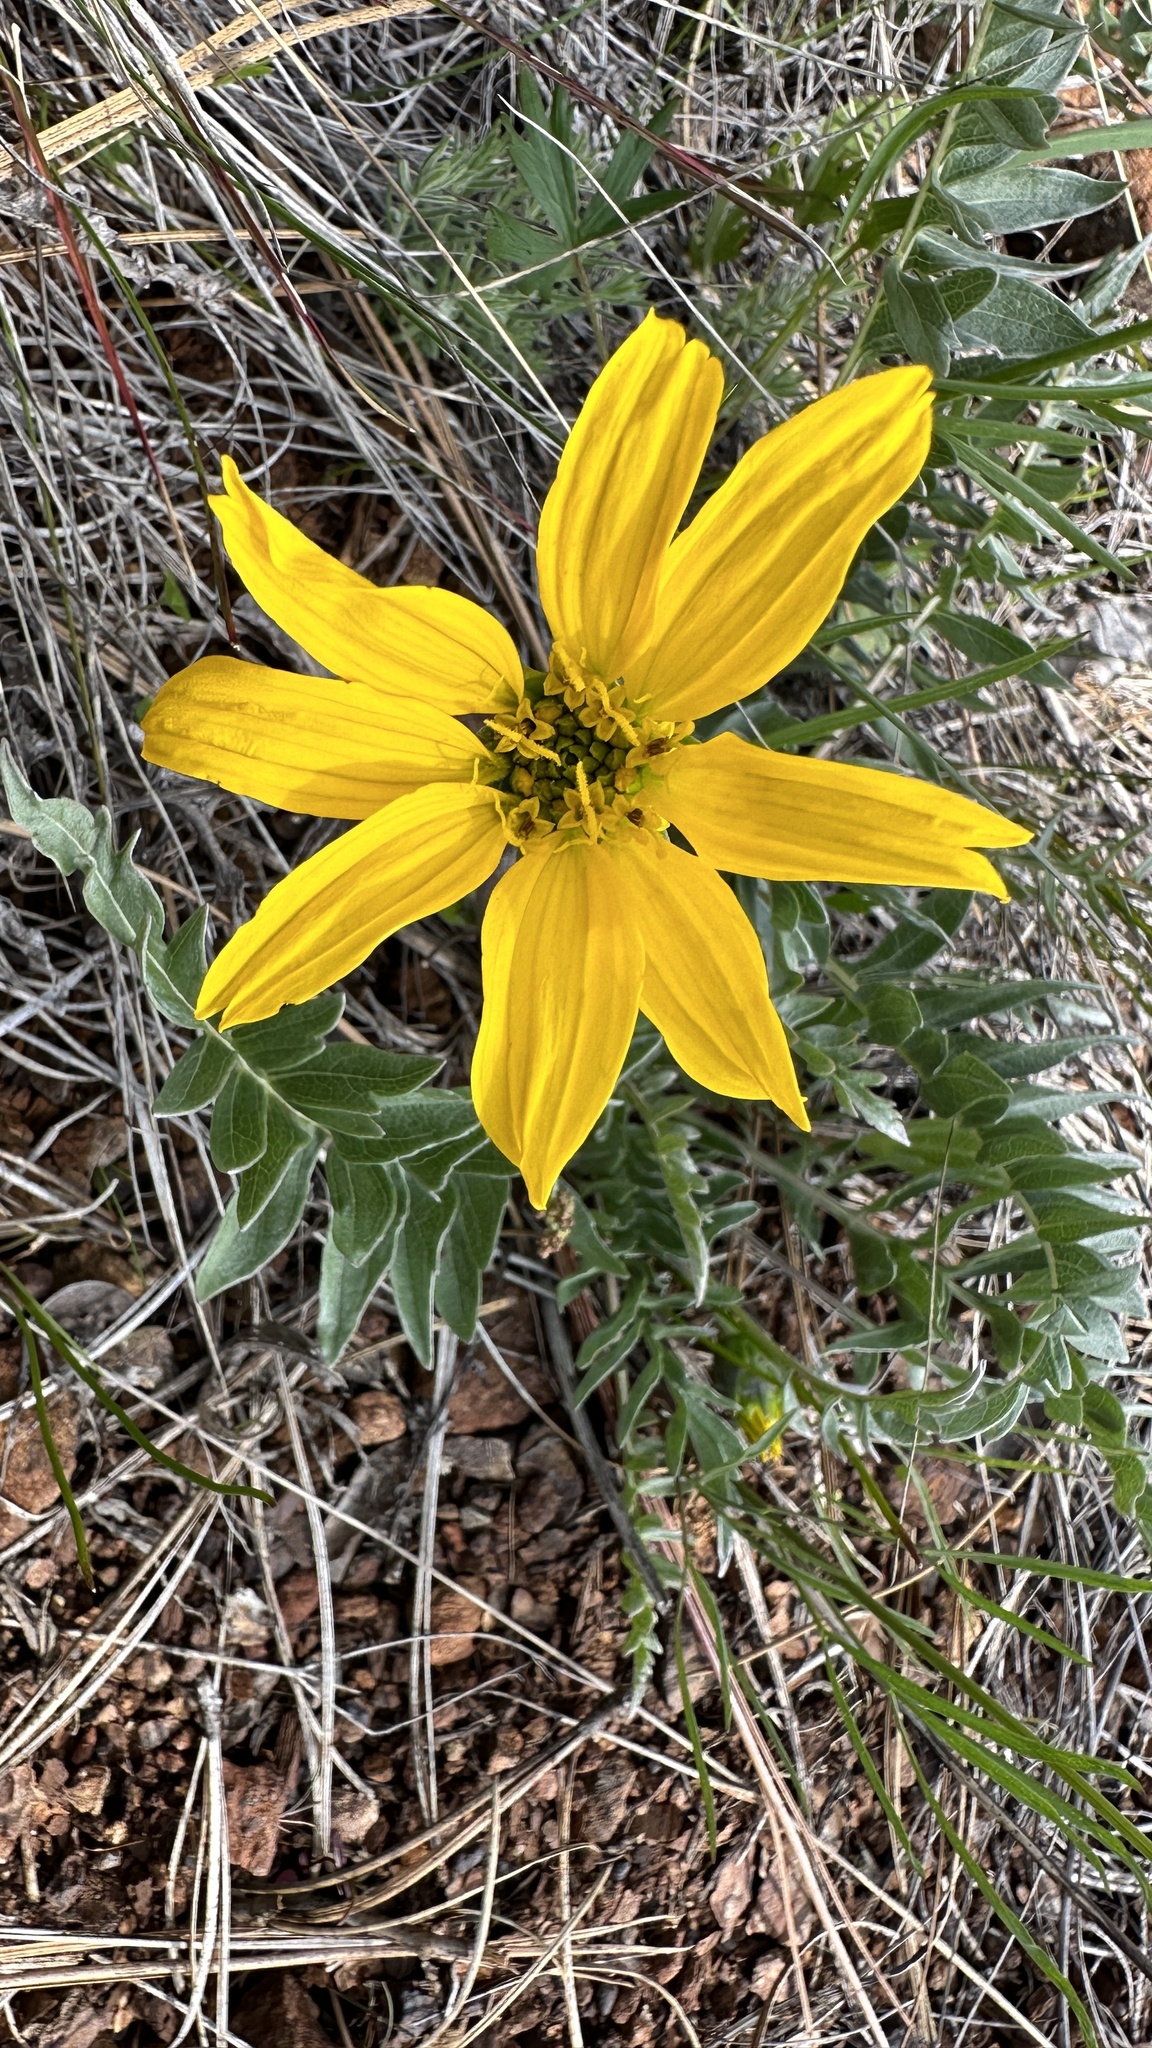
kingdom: Plantae
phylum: Tracheophyta
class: Magnoliopsida
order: Asterales
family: Asteraceae
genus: Balsamorhiza
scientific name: Balsamorhiza sericea
